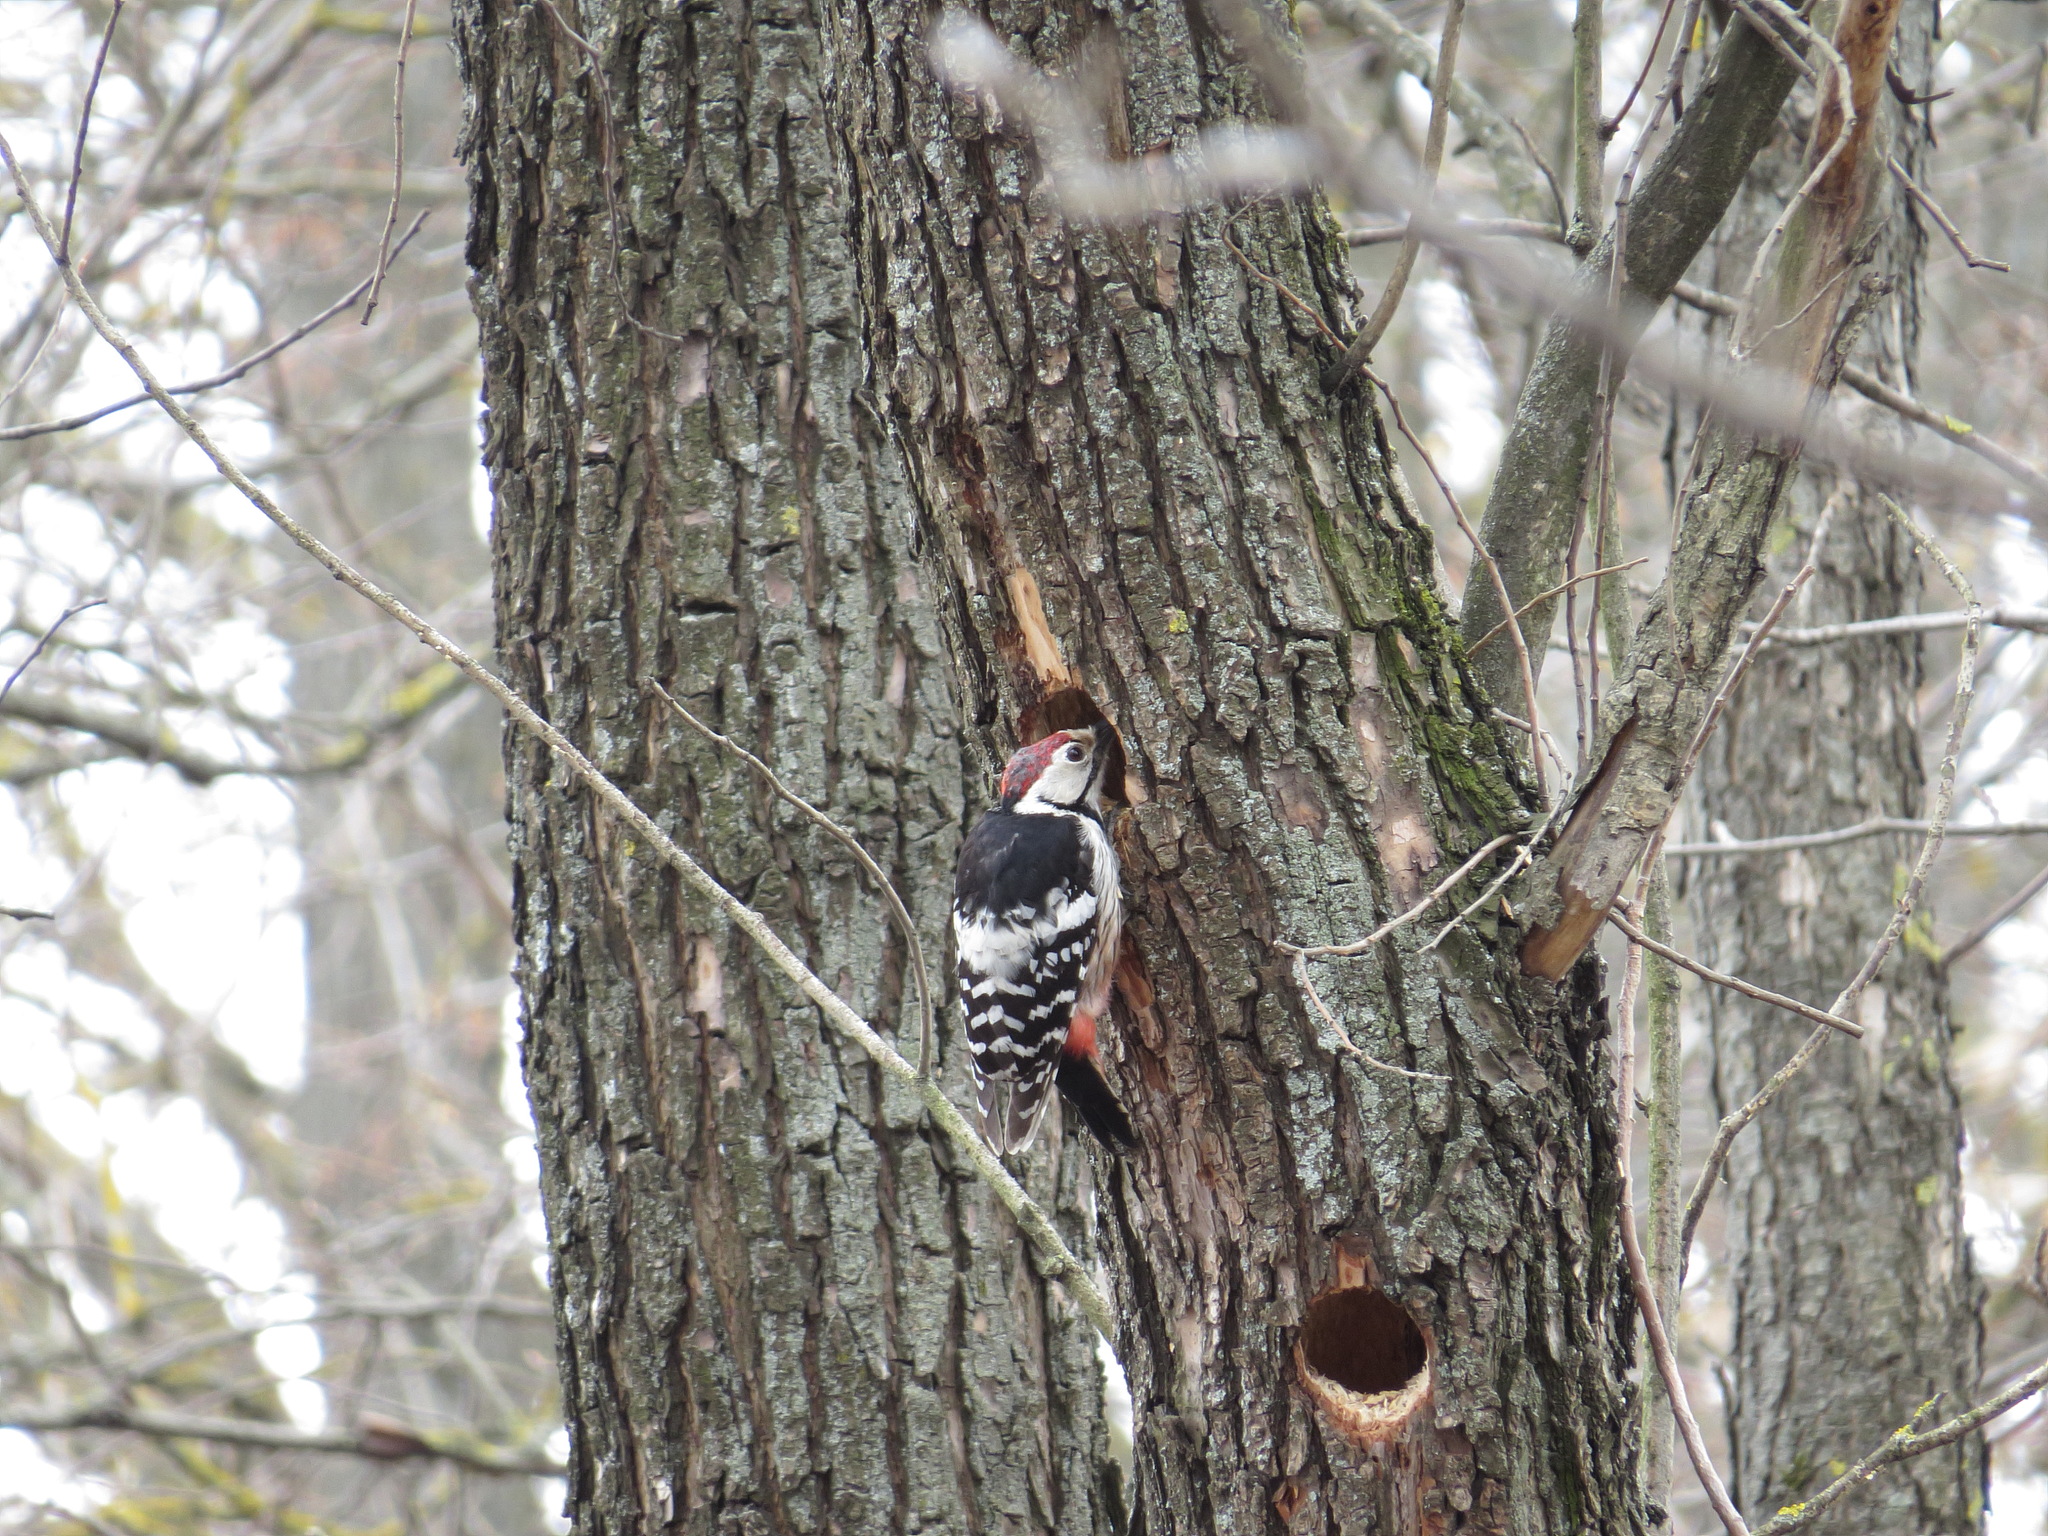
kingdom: Animalia
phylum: Chordata
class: Aves
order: Piciformes
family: Picidae
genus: Dendrocopos
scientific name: Dendrocopos leucotos
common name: White-backed woodpecker
